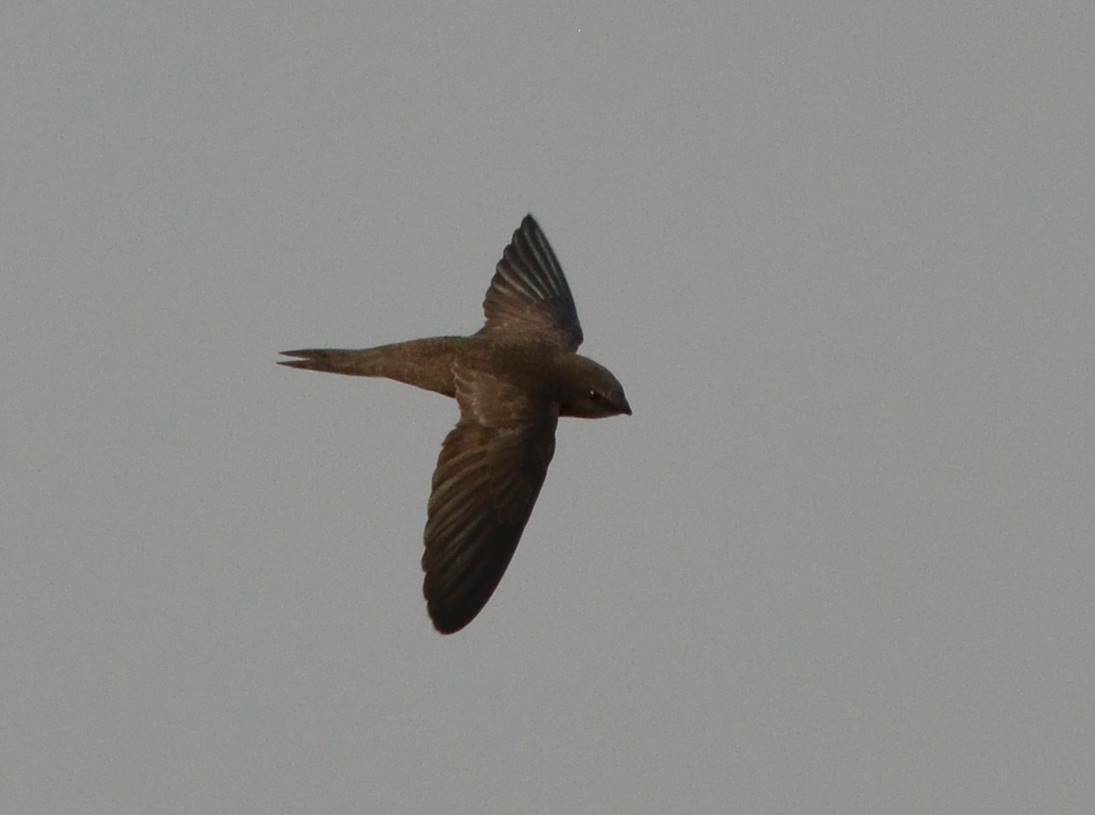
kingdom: Animalia
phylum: Chordata
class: Aves
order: Apodiformes
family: Apodidae
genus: Apus
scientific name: Apus pallidus
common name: Pallid swift
